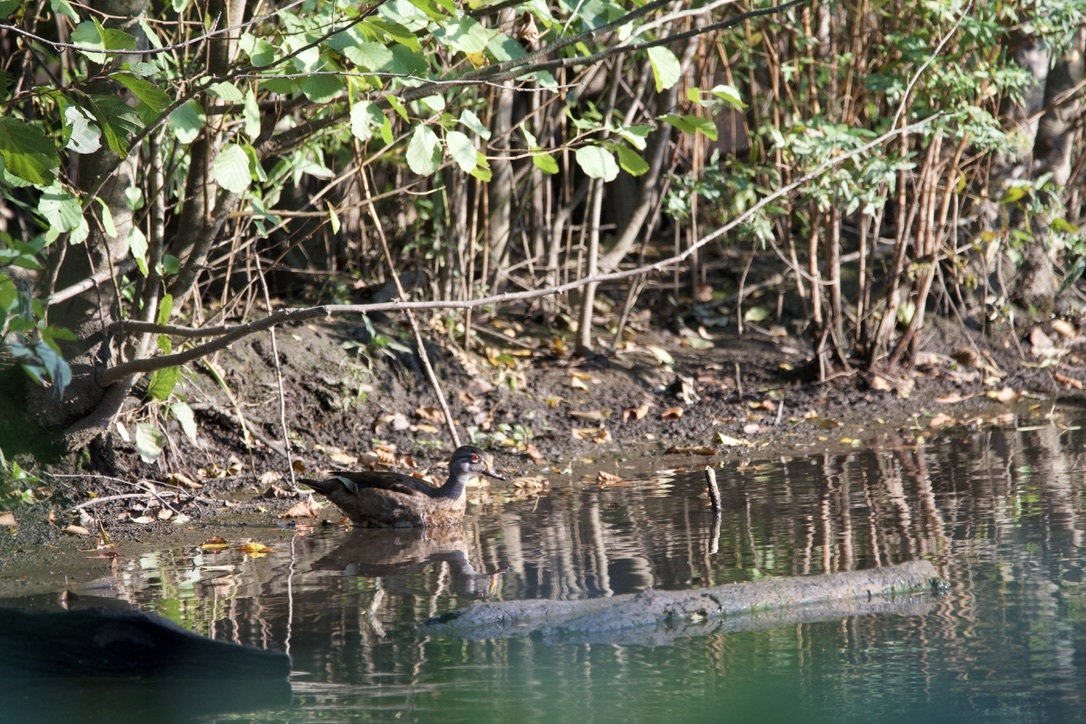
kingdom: Animalia
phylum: Chordata
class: Aves
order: Anseriformes
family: Anatidae
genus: Aix
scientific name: Aix sponsa
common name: Wood duck
